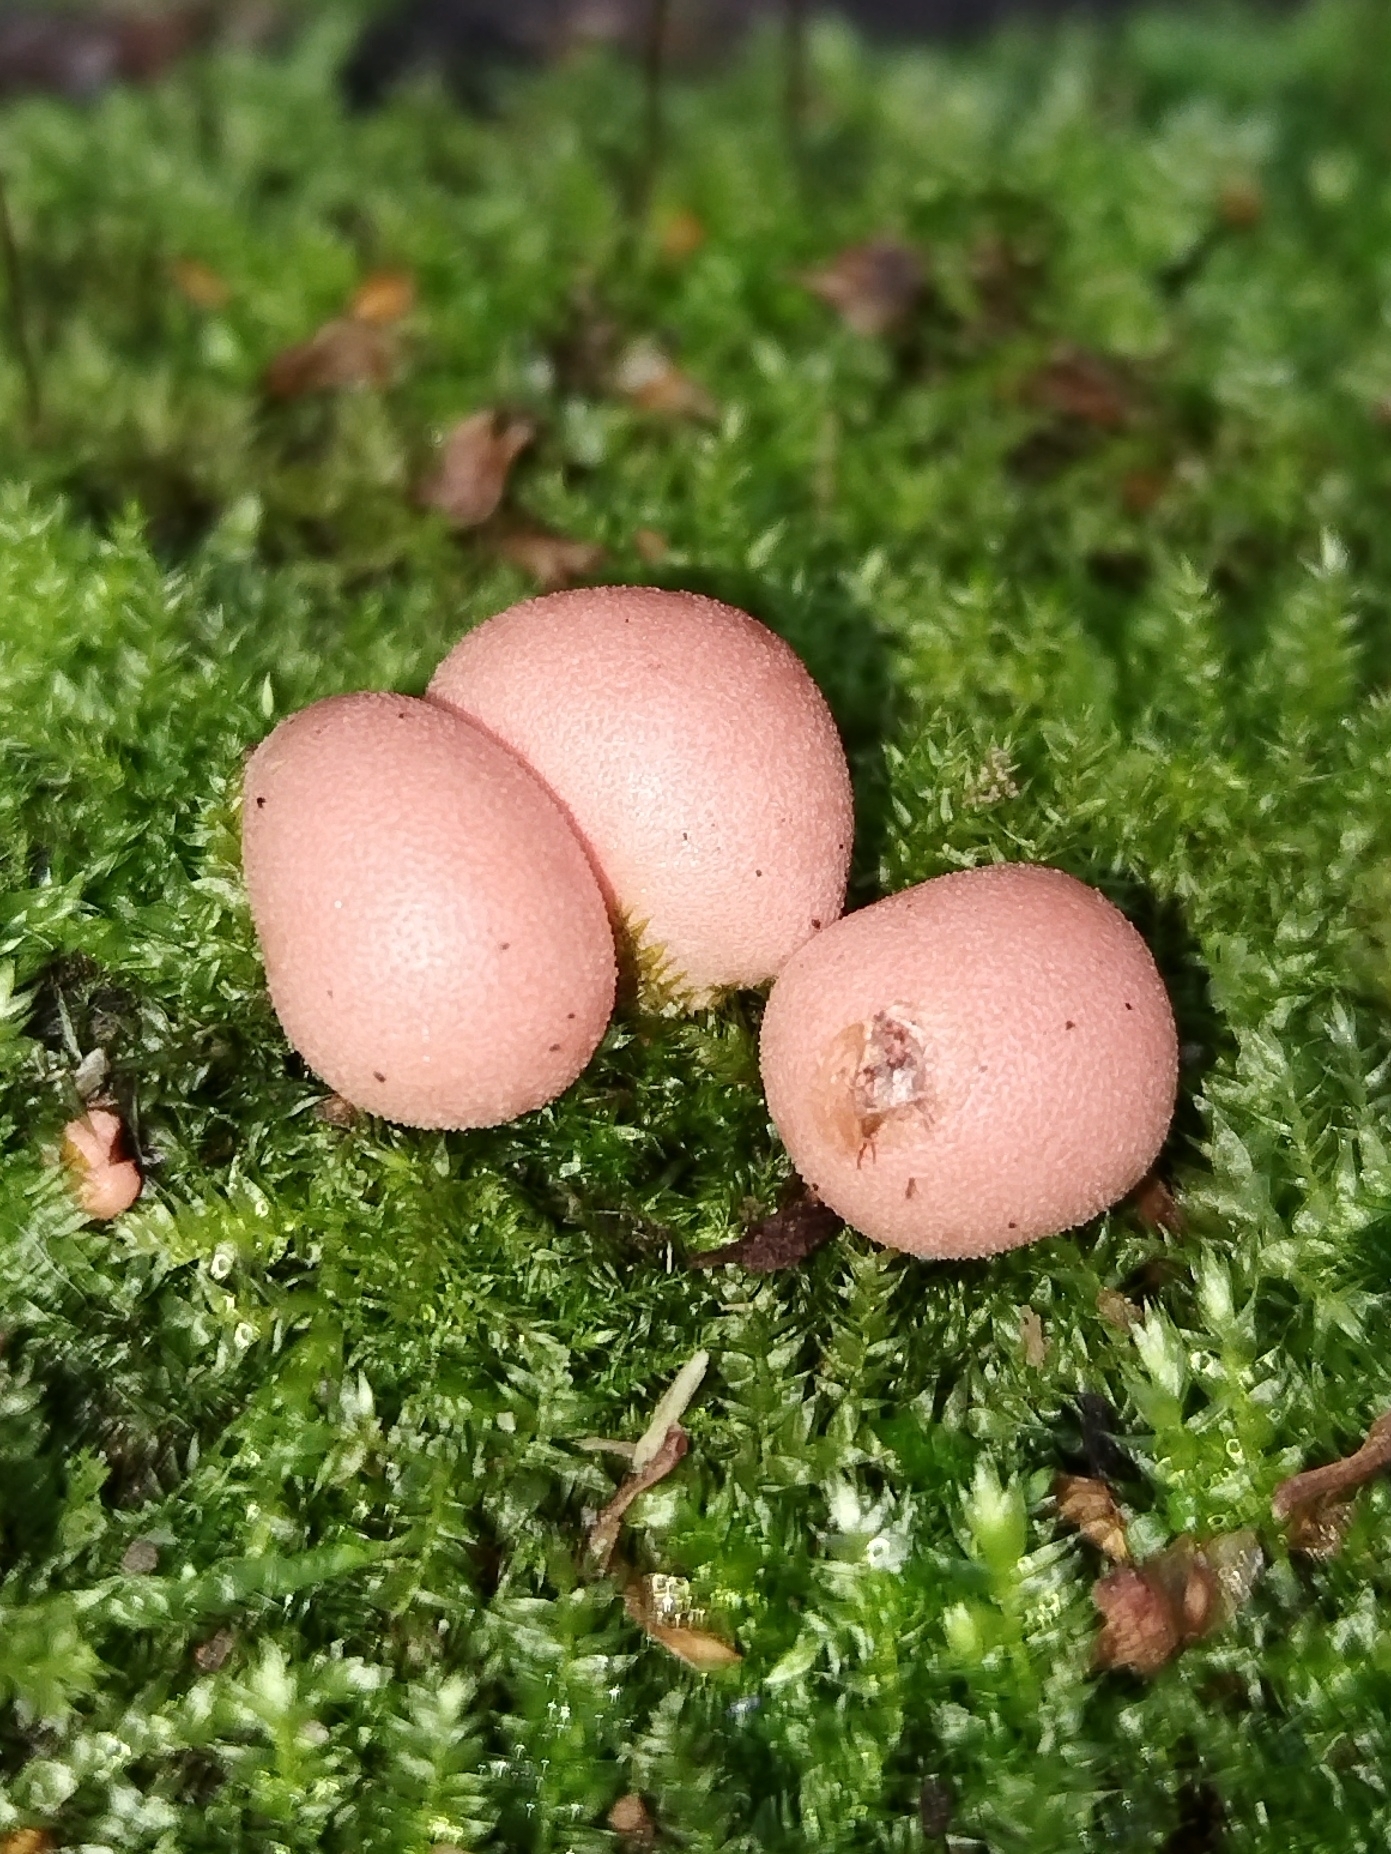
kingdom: Protozoa
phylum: Mycetozoa
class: Myxomycetes
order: Cribrariales
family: Tubiferaceae
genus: Lycogala
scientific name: Lycogala epidendrum
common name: Wolf's milk
